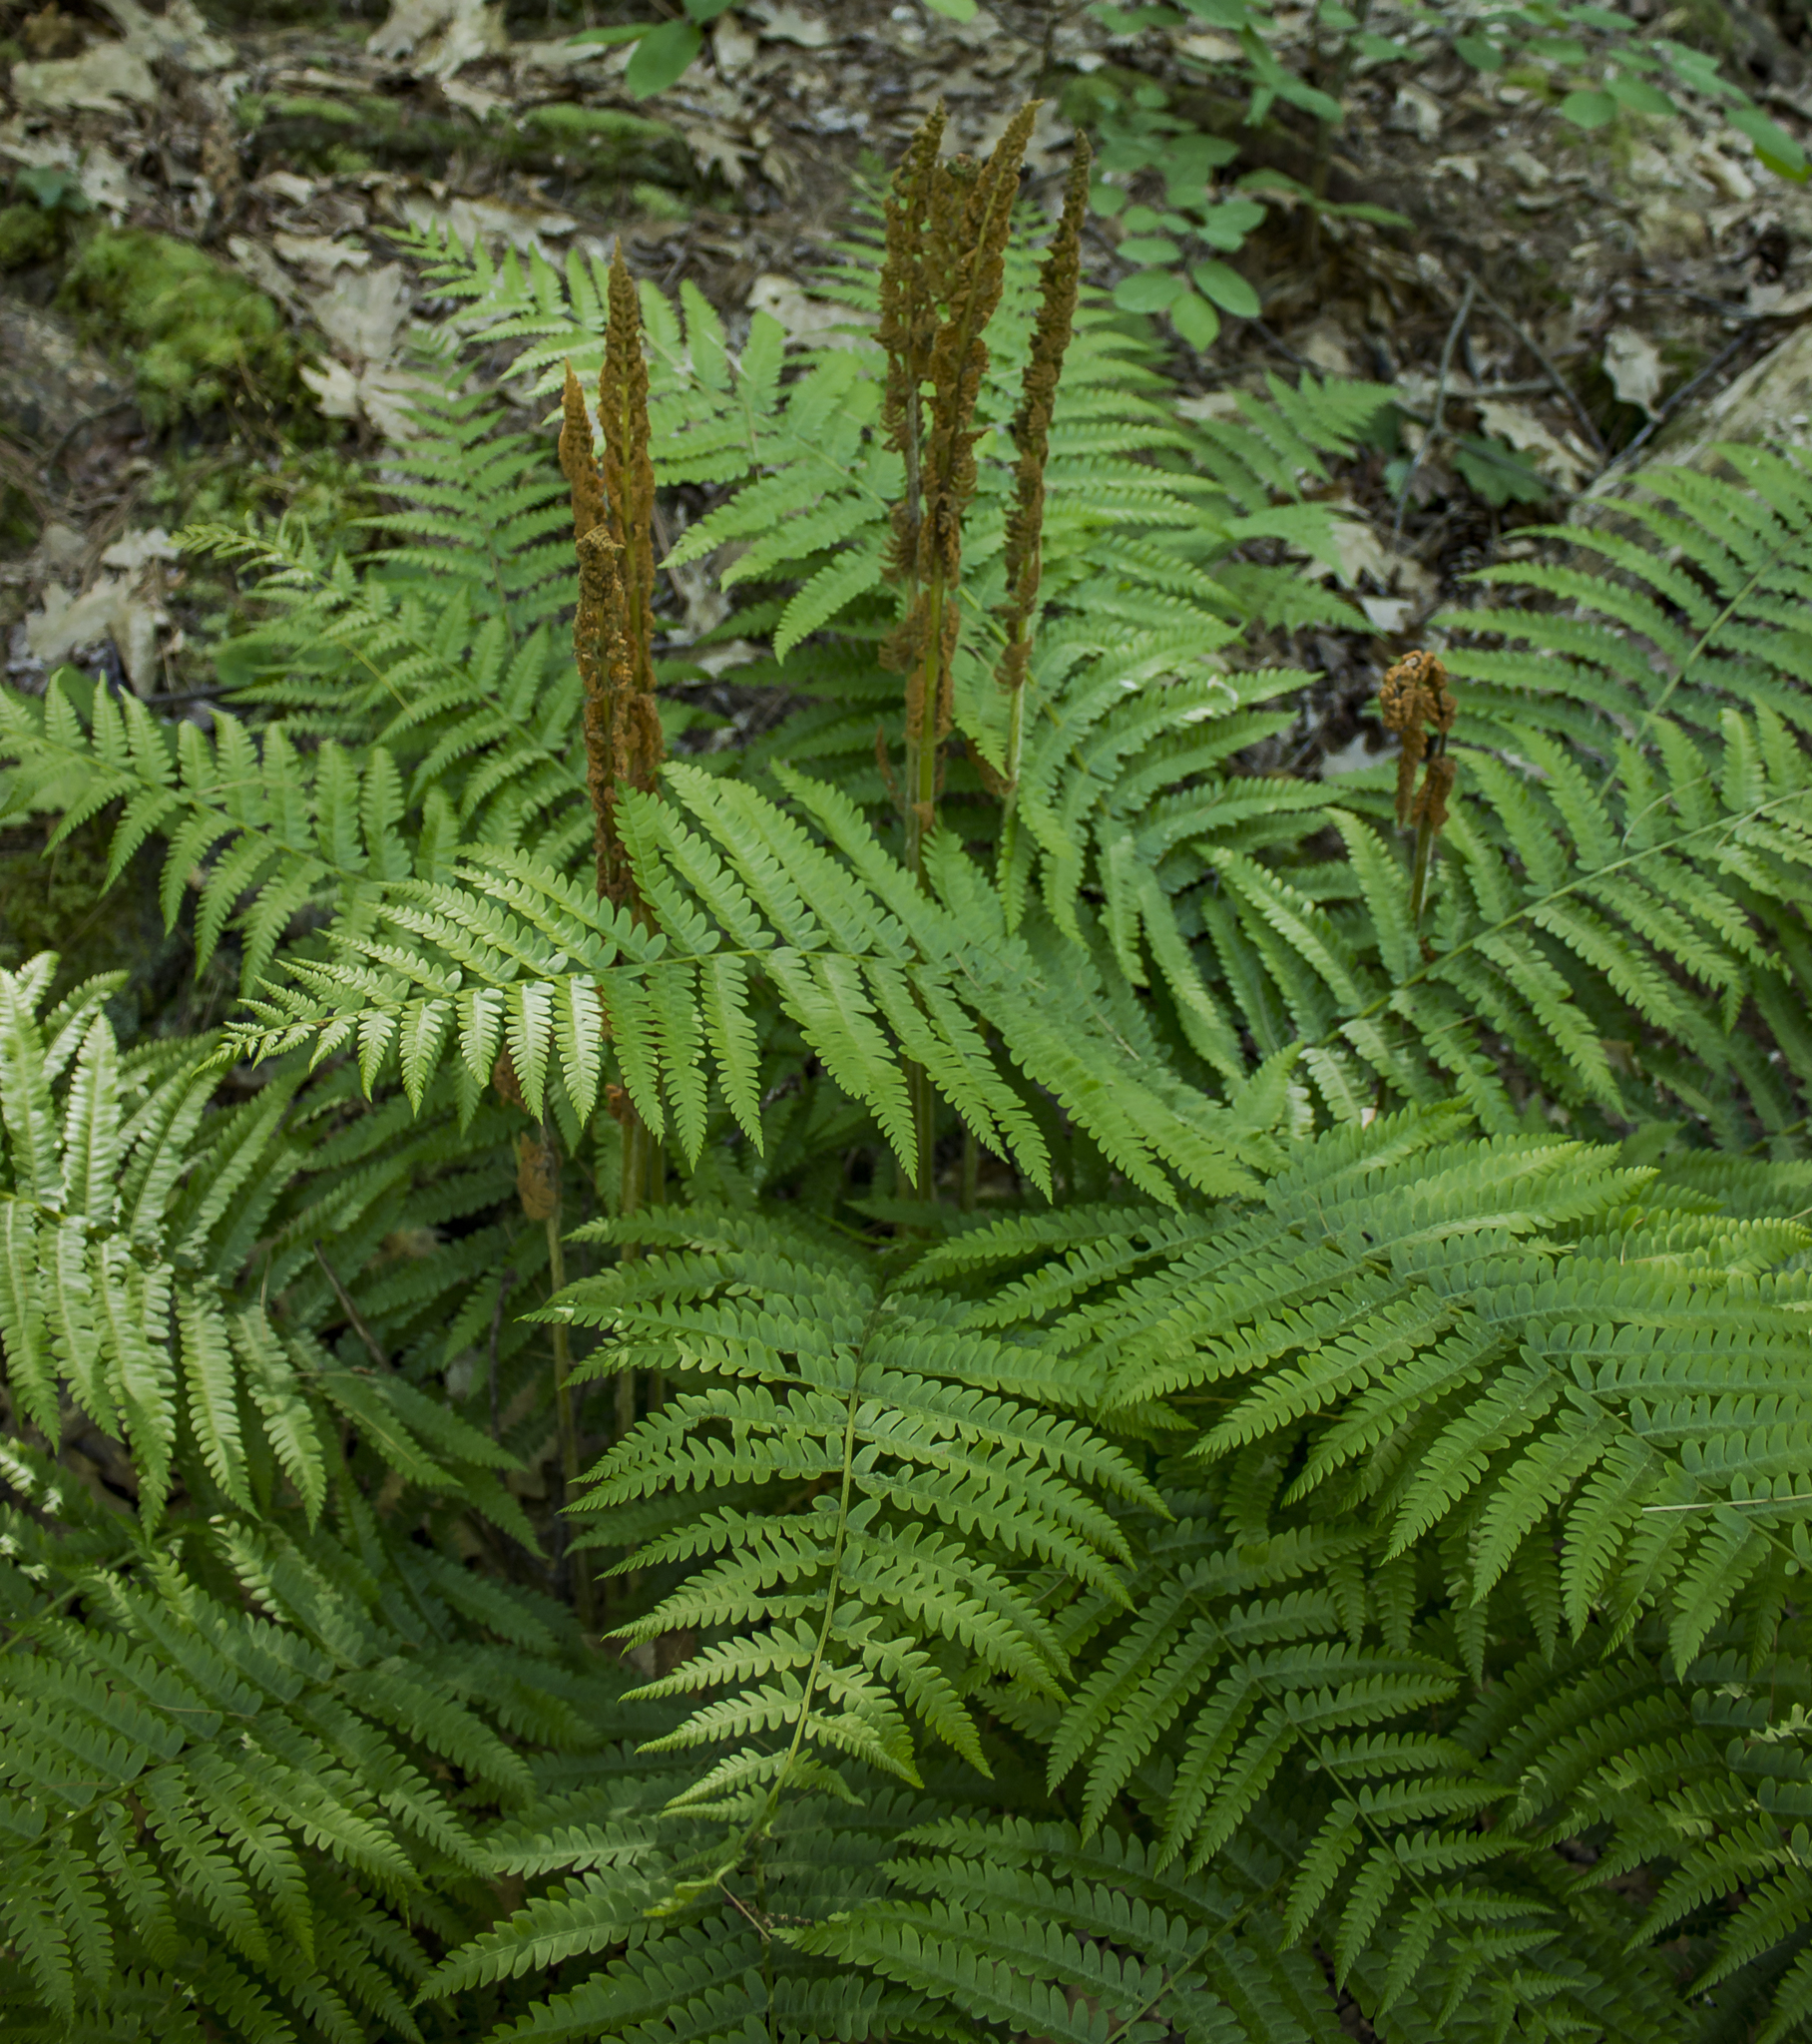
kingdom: Plantae
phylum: Tracheophyta
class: Polypodiopsida
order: Osmundales
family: Osmundaceae
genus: Osmundastrum
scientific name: Osmundastrum cinnamomeum
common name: Cinnamon fern
